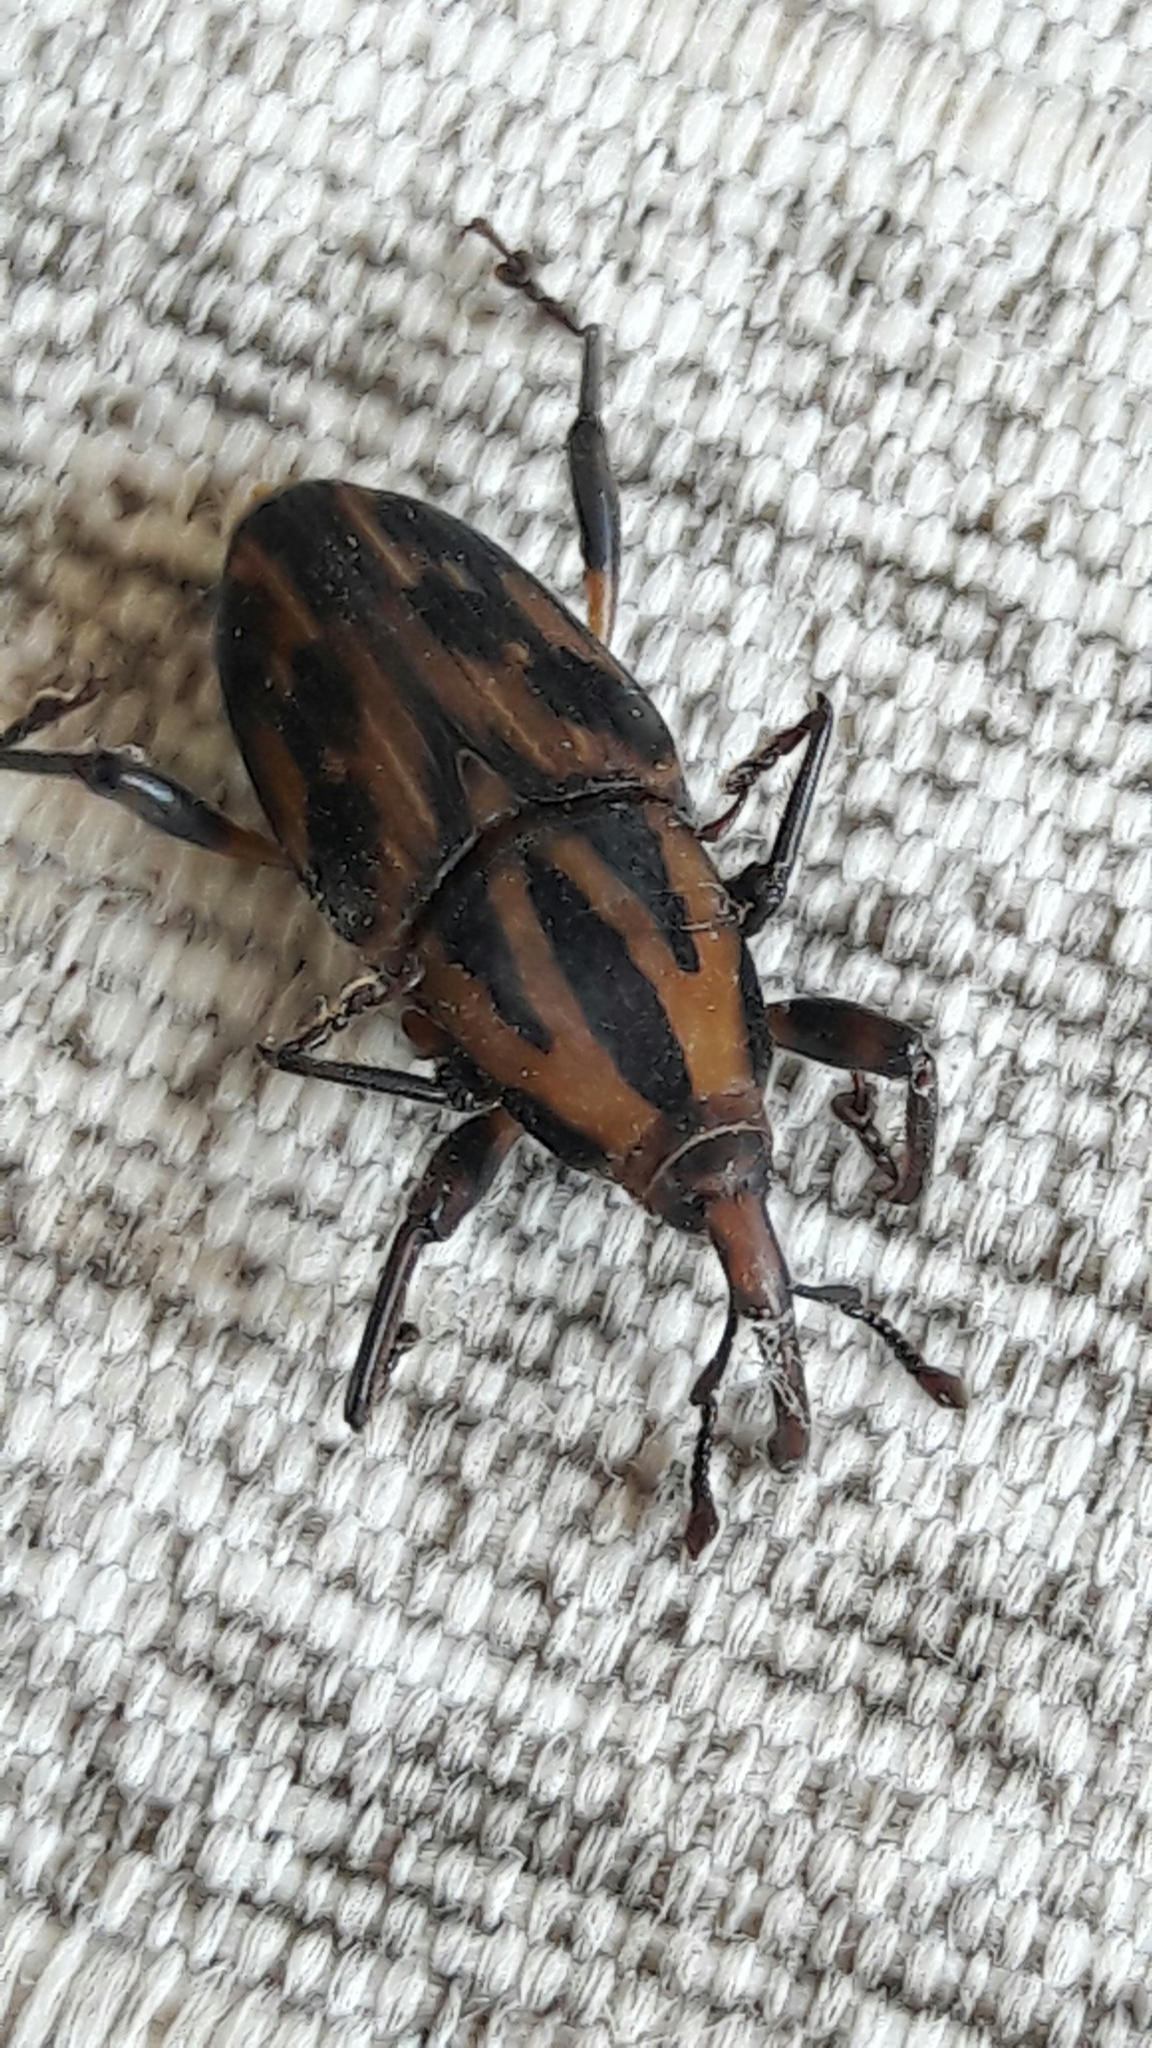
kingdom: Animalia
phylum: Arthropoda
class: Insecta
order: Coleoptera
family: Dryophthoridae
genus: Metamasius
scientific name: Metamasius hemipterus
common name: Weevil
